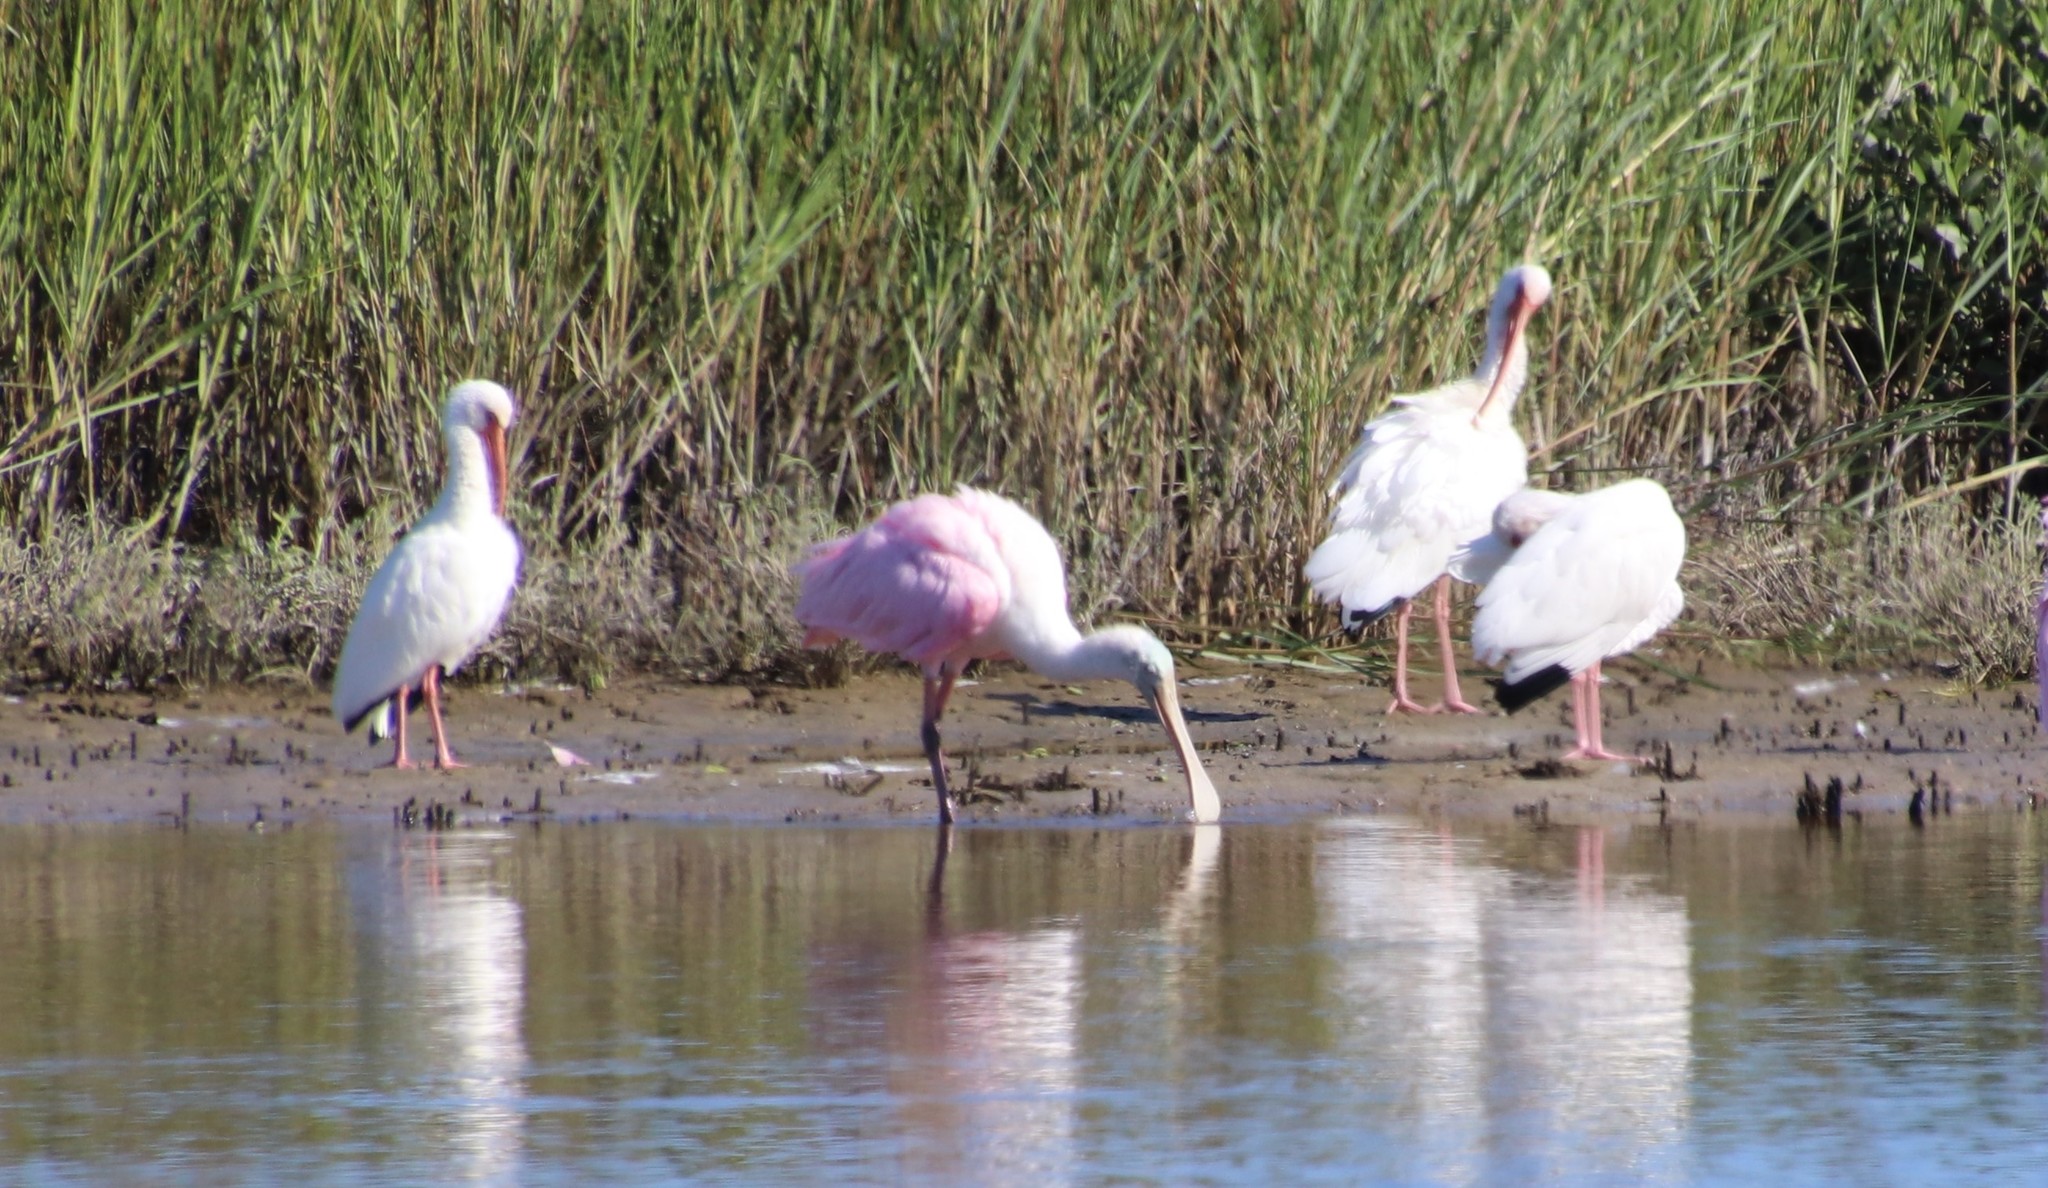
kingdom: Animalia
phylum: Chordata
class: Aves
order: Pelecaniformes
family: Threskiornithidae
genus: Platalea
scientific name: Platalea ajaja
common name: Roseate spoonbill
